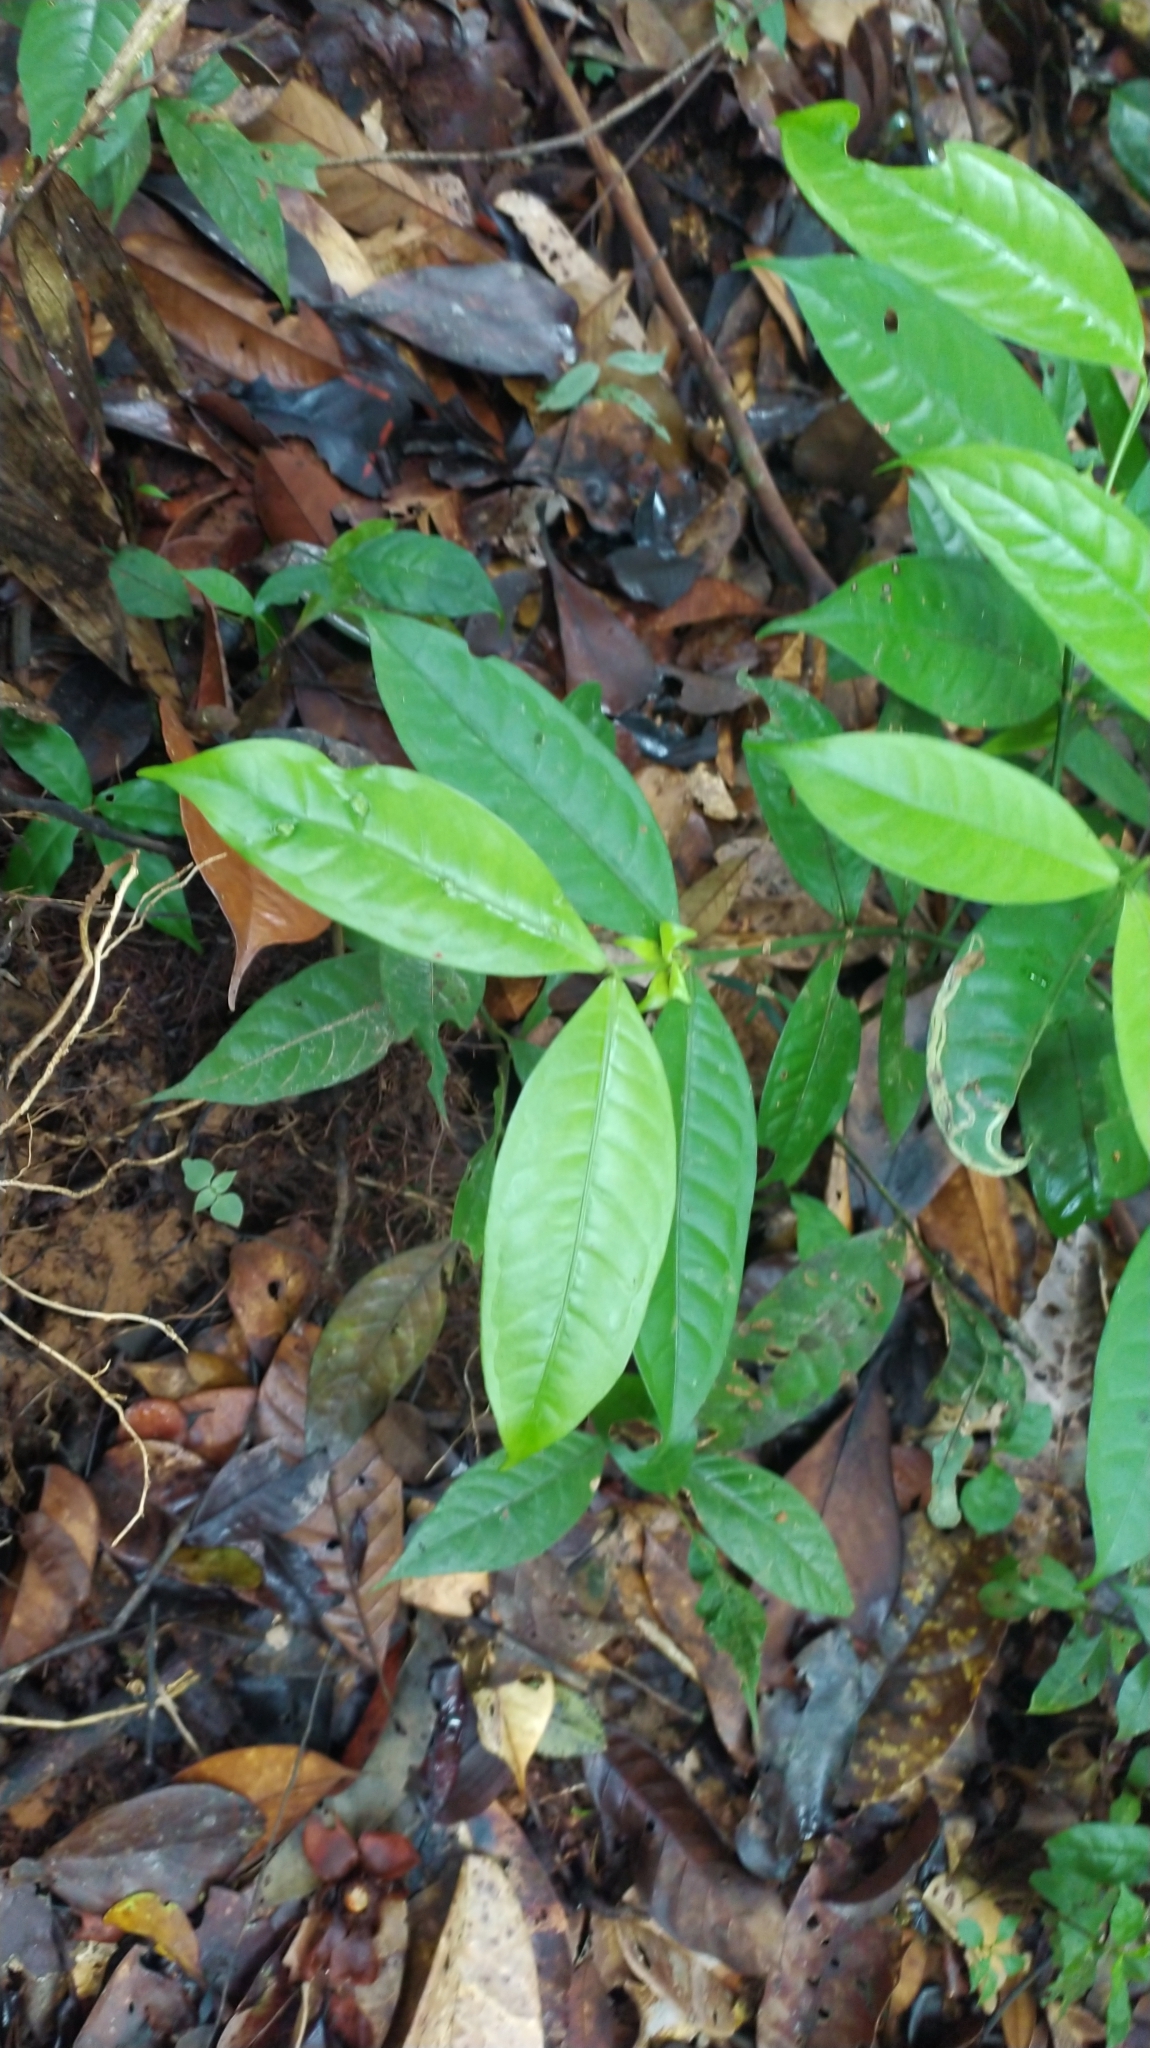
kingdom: Plantae
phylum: Tracheophyta
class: Magnoliopsida
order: Gentianales
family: Rubiaceae
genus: Faramea
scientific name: Faramea guianensis
